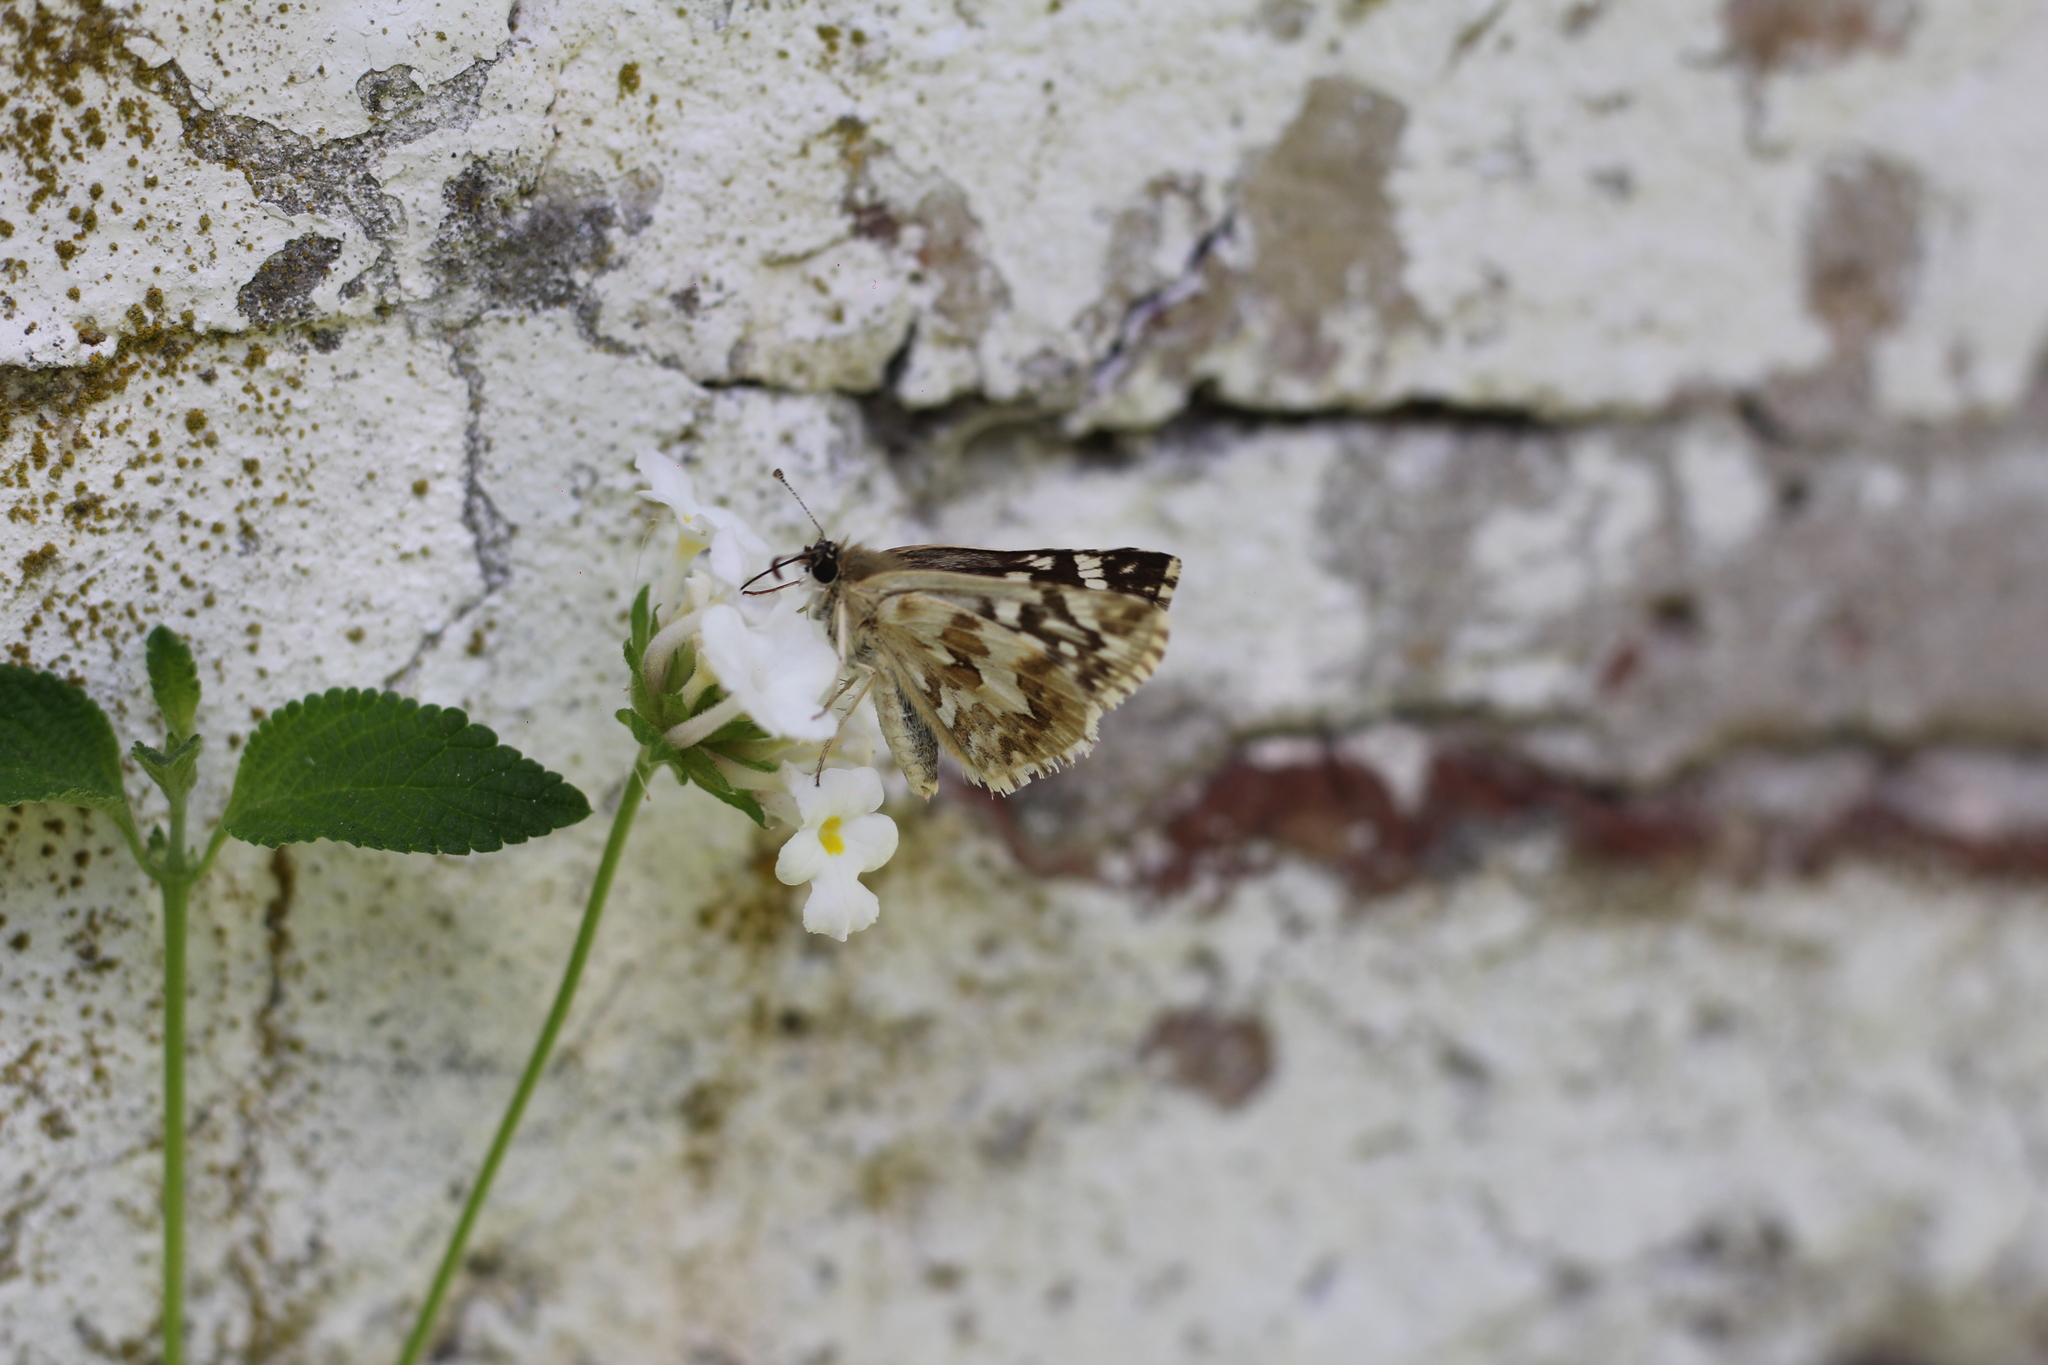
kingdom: Animalia
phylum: Arthropoda
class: Insecta
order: Lepidoptera
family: Hesperiidae
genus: Heliopetes
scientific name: Heliopetes americanus
